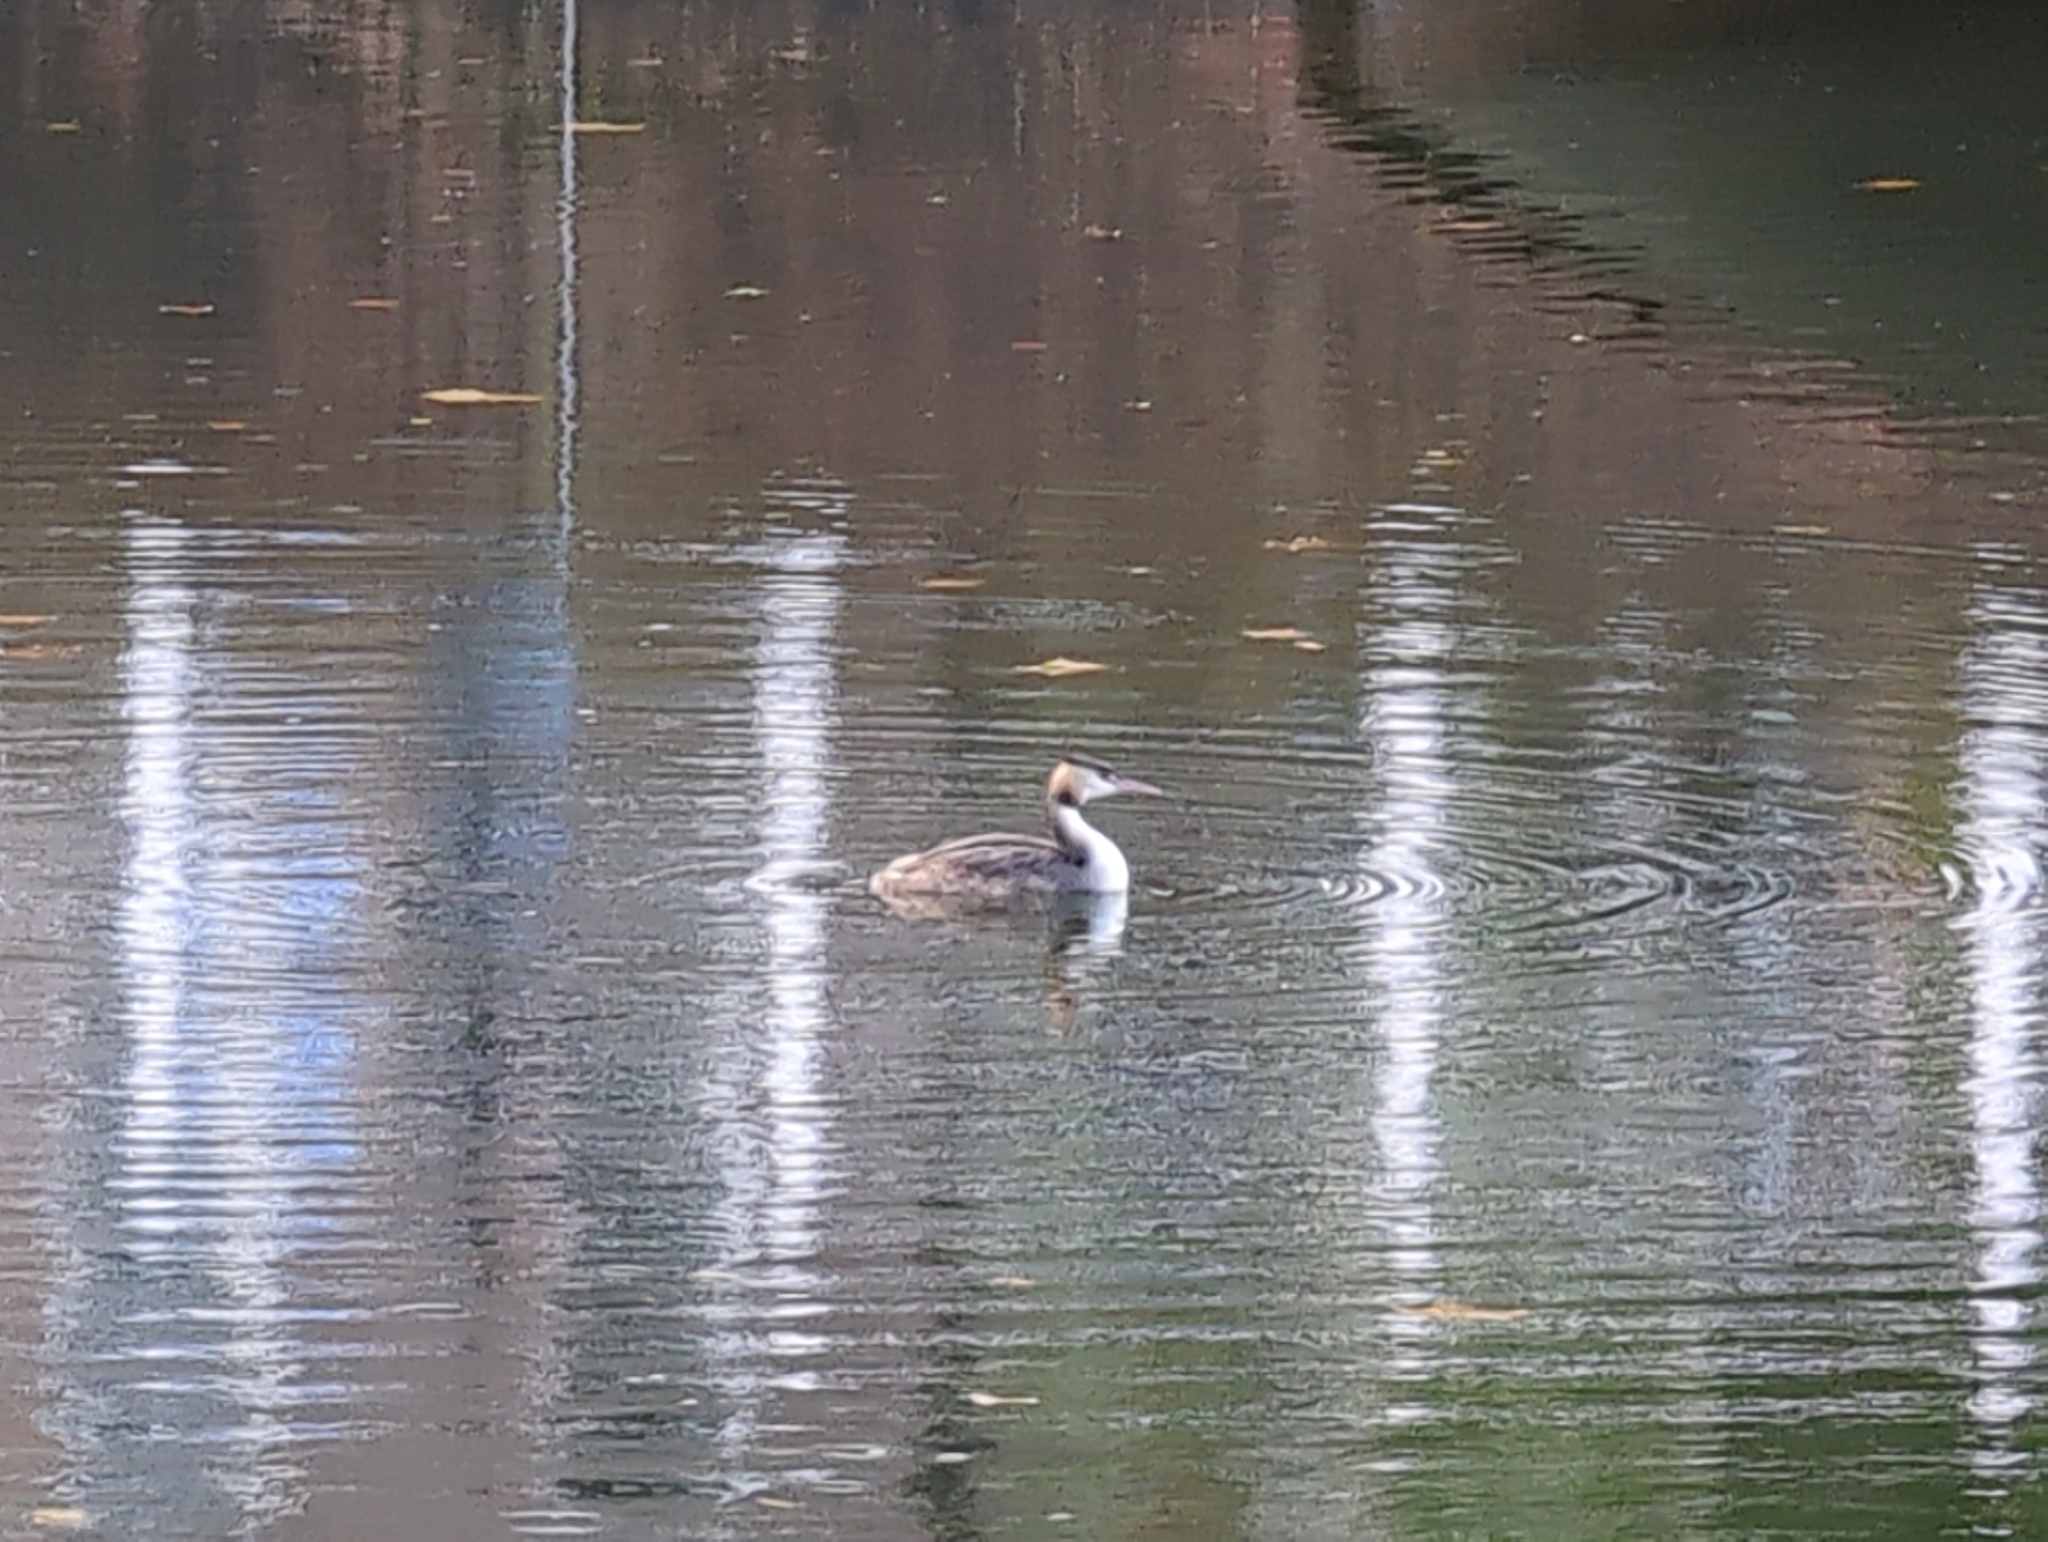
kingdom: Animalia
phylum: Chordata
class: Aves
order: Podicipediformes
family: Podicipedidae
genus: Podiceps
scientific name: Podiceps cristatus
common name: Great crested grebe
